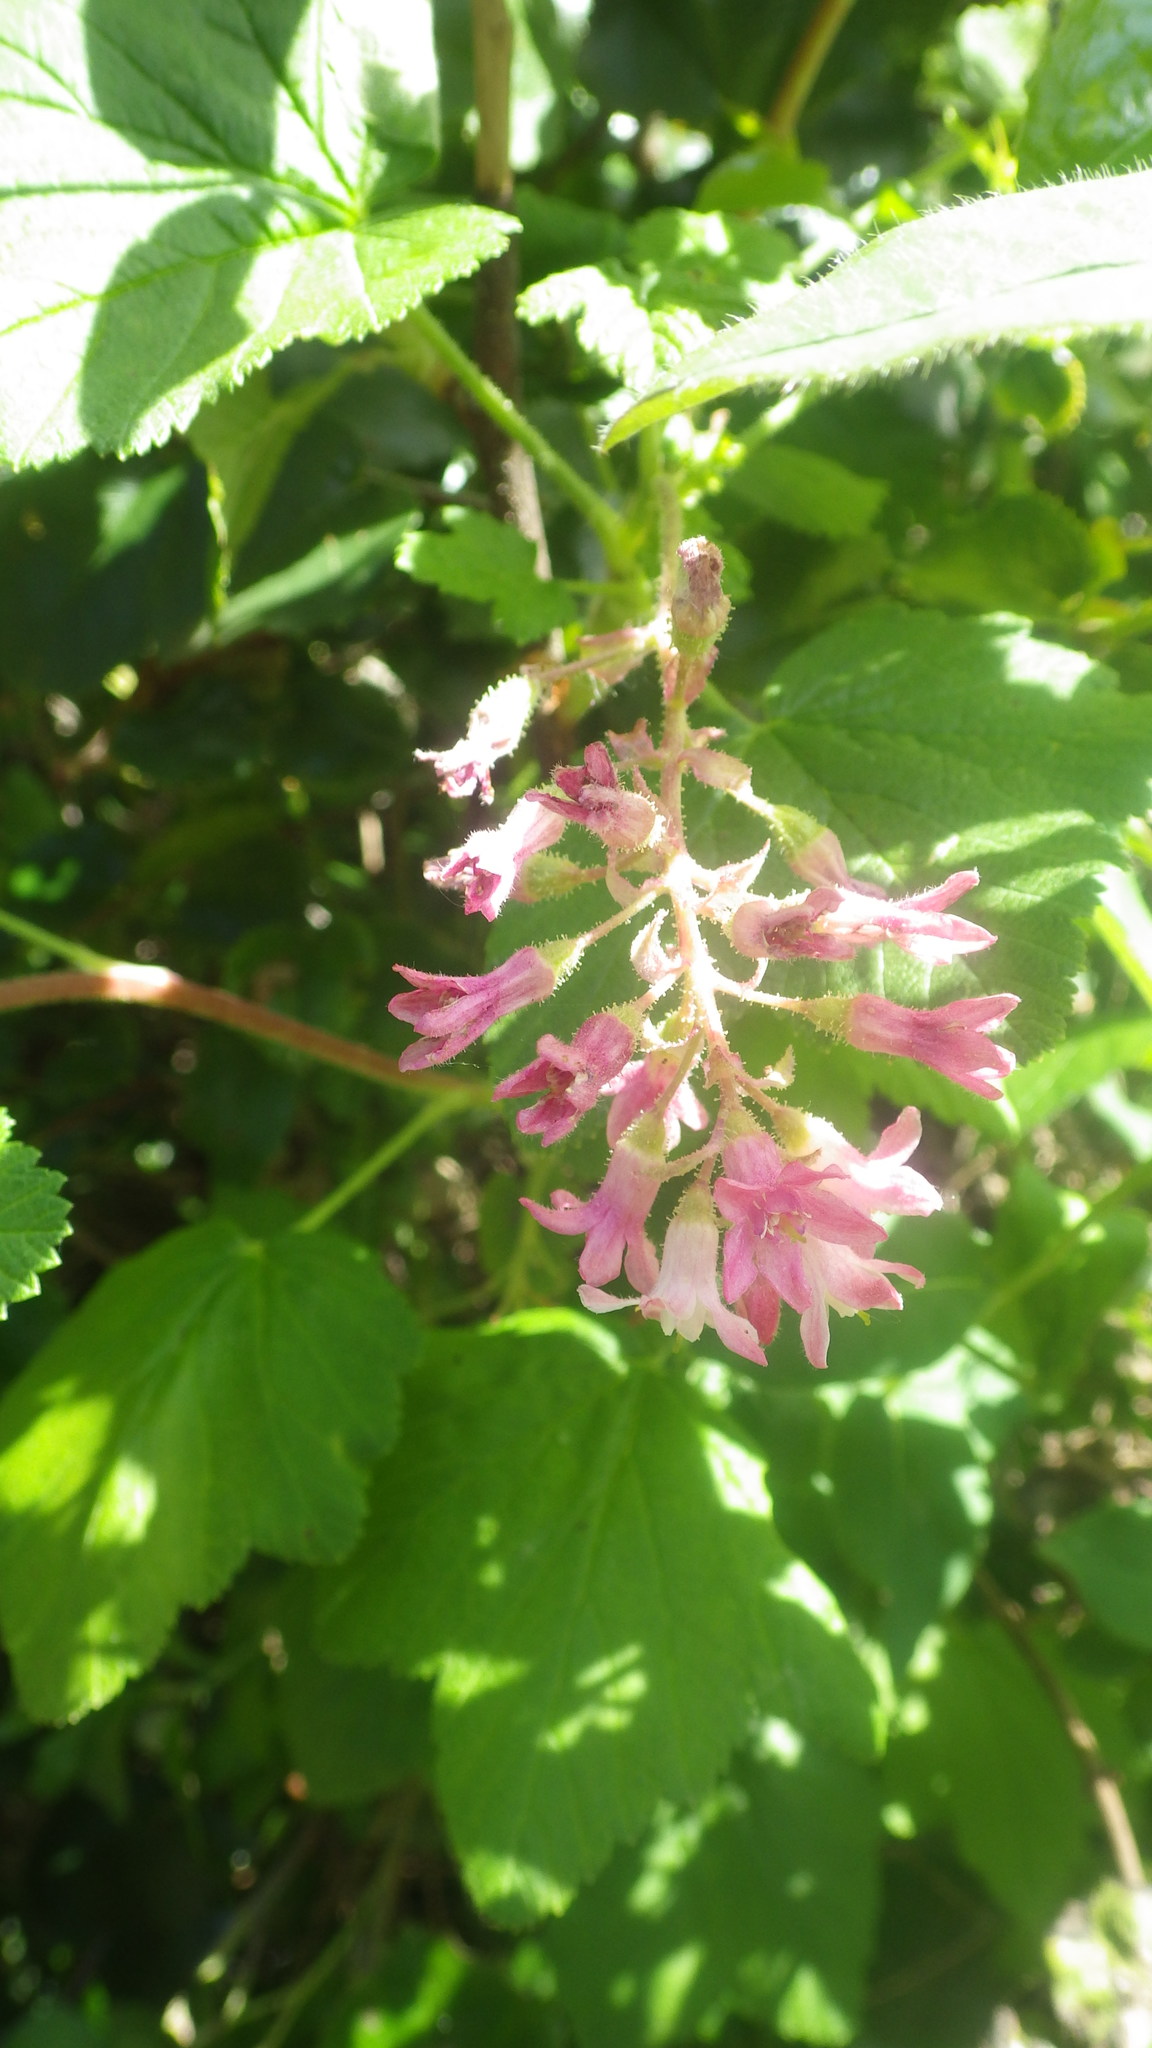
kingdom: Plantae
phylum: Tracheophyta
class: Magnoliopsida
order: Saxifragales
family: Grossulariaceae
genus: Ribes
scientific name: Ribes sanguineum
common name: Flowering currant
